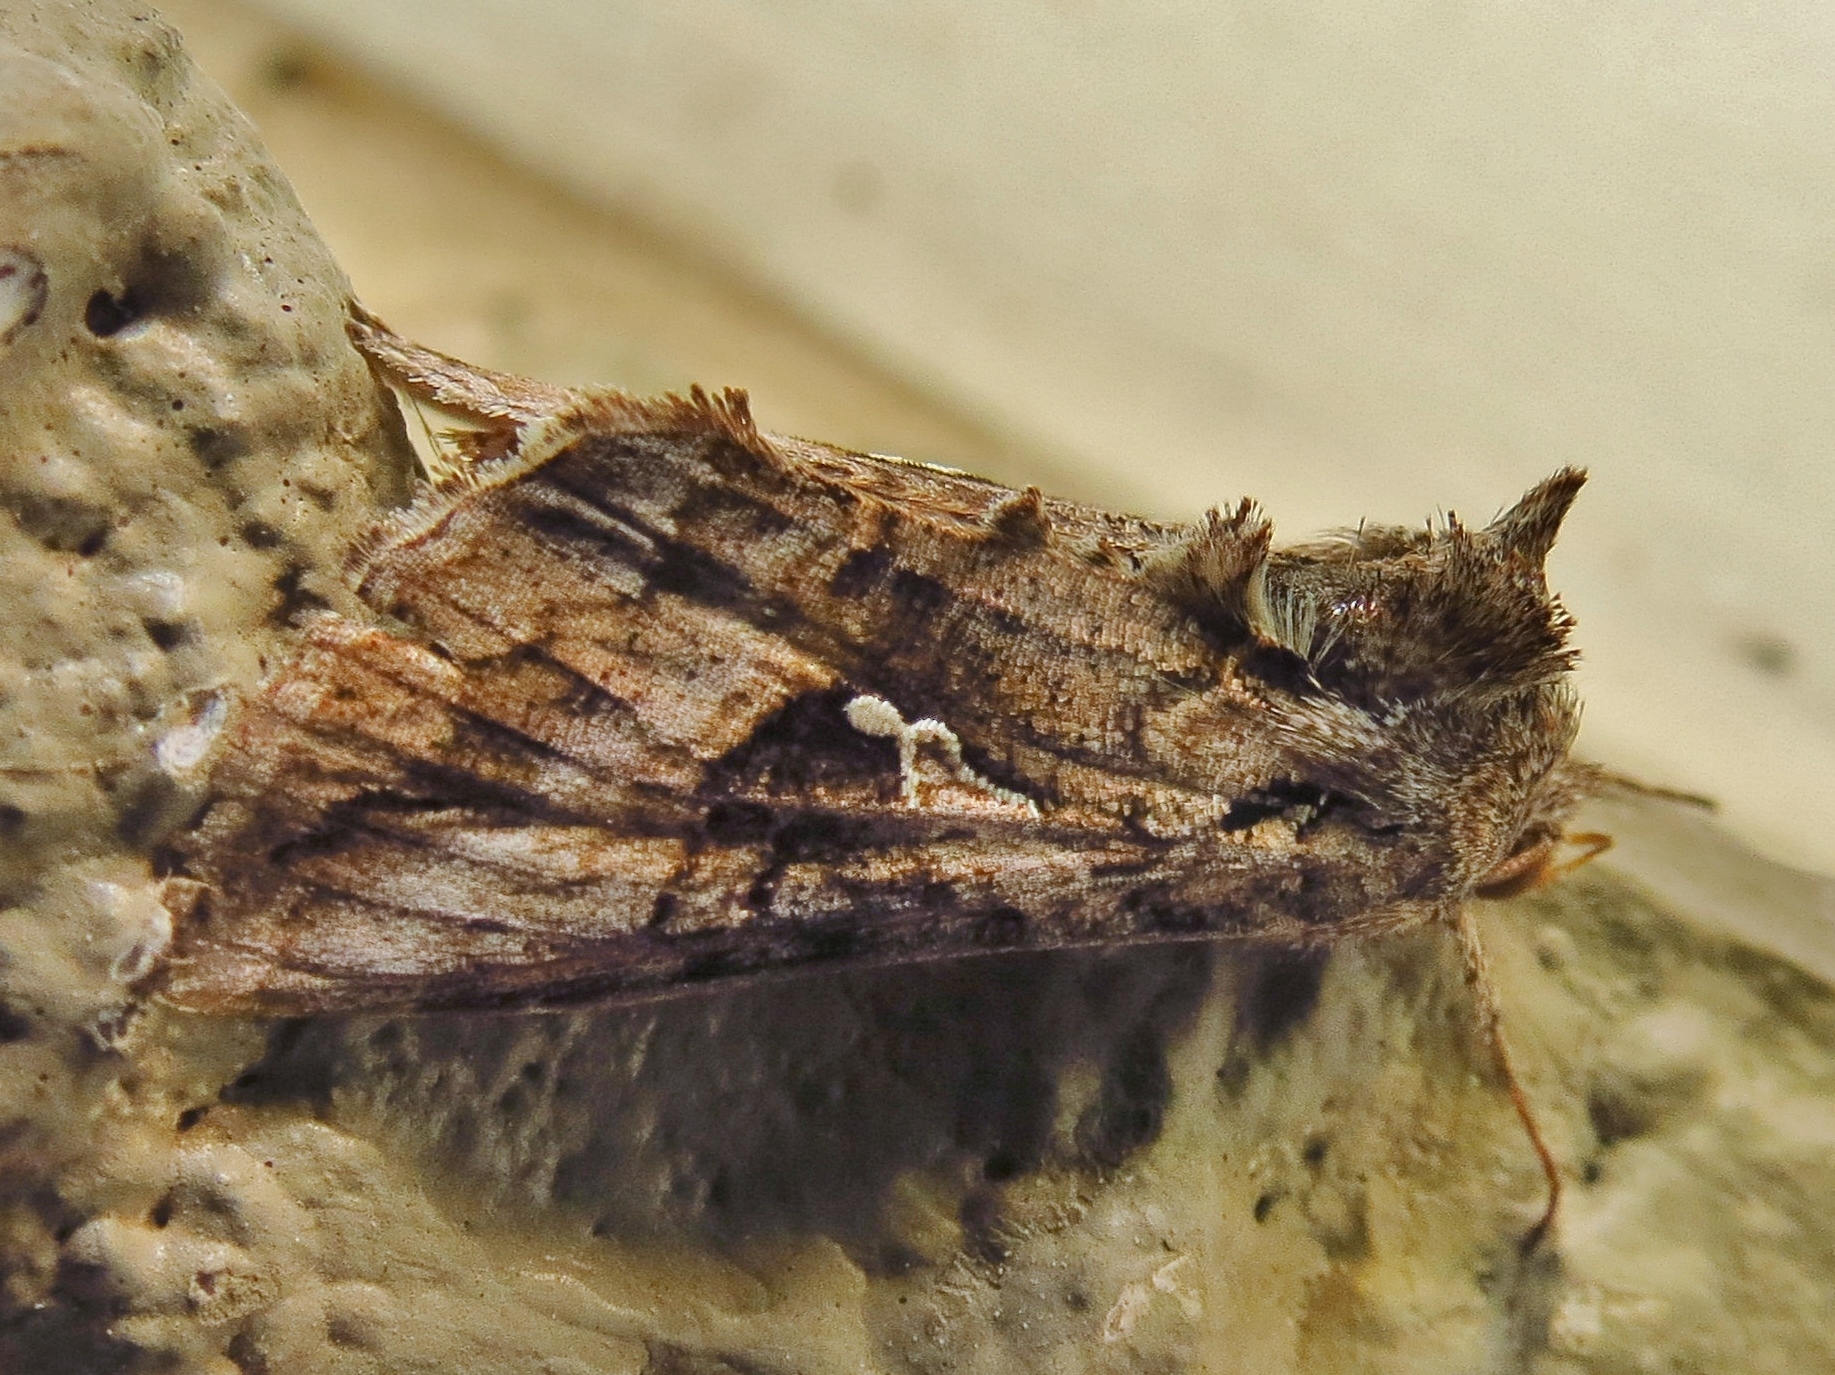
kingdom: Animalia
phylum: Arthropoda
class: Insecta
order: Lepidoptera
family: Noctuidae
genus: Rachiplusia
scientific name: Rachiplusia ou
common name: Gray looper moth
